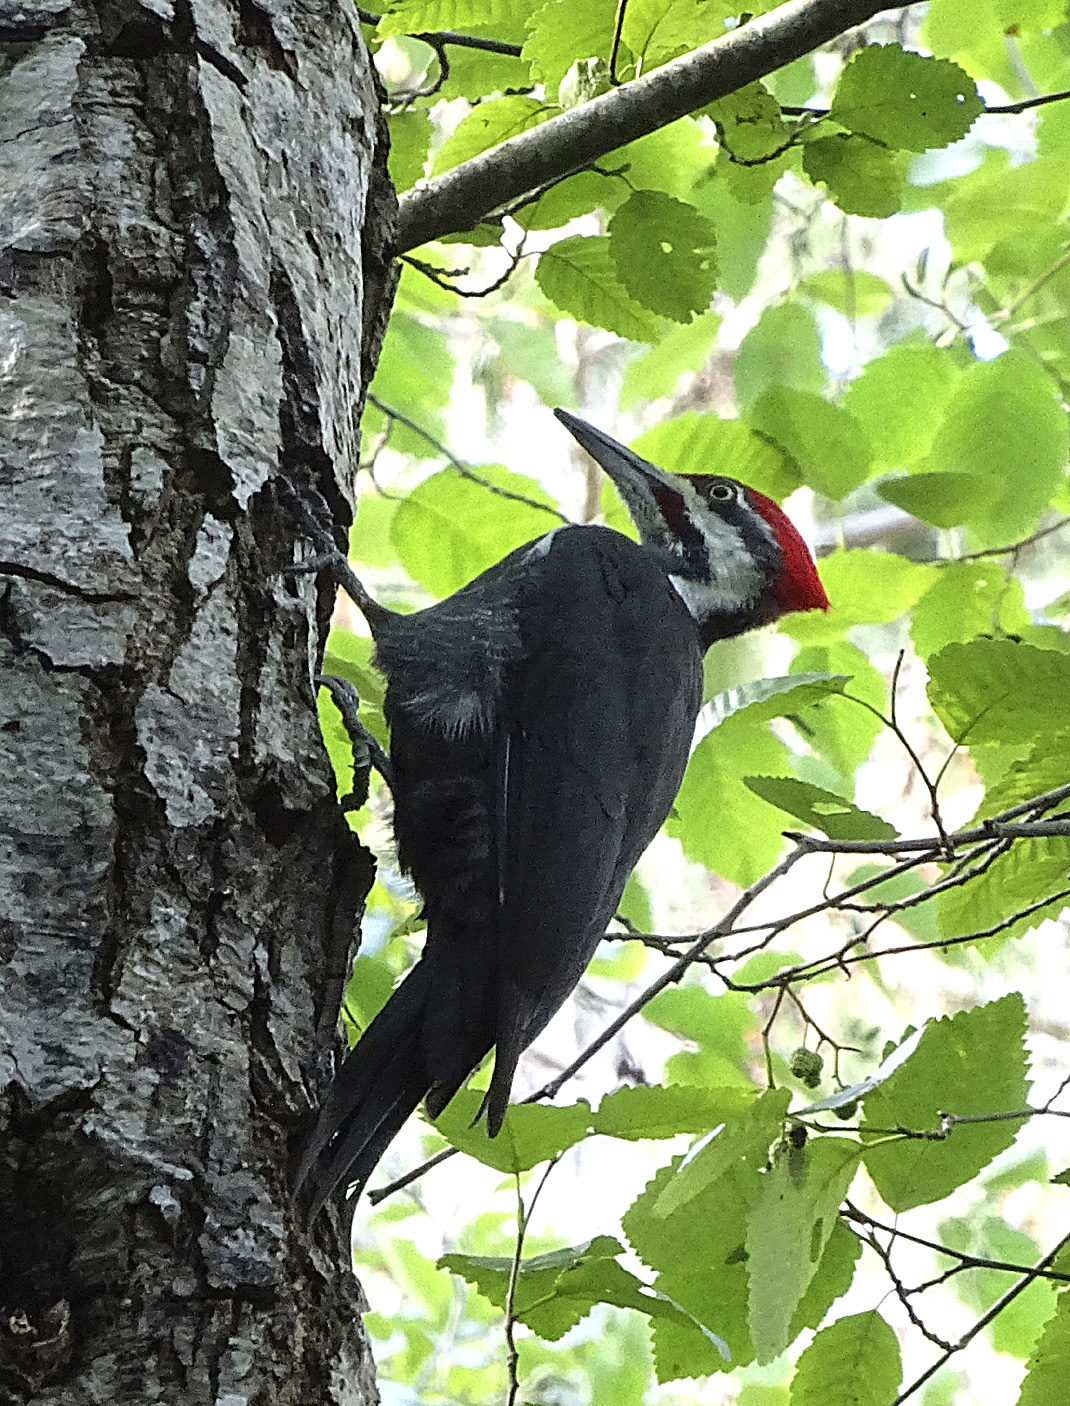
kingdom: Animalia
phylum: Chordata
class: Aves
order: Piciformes
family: Picidae
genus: Dryocopus
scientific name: Dryocopus pileatus
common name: Pileated woodpecker
